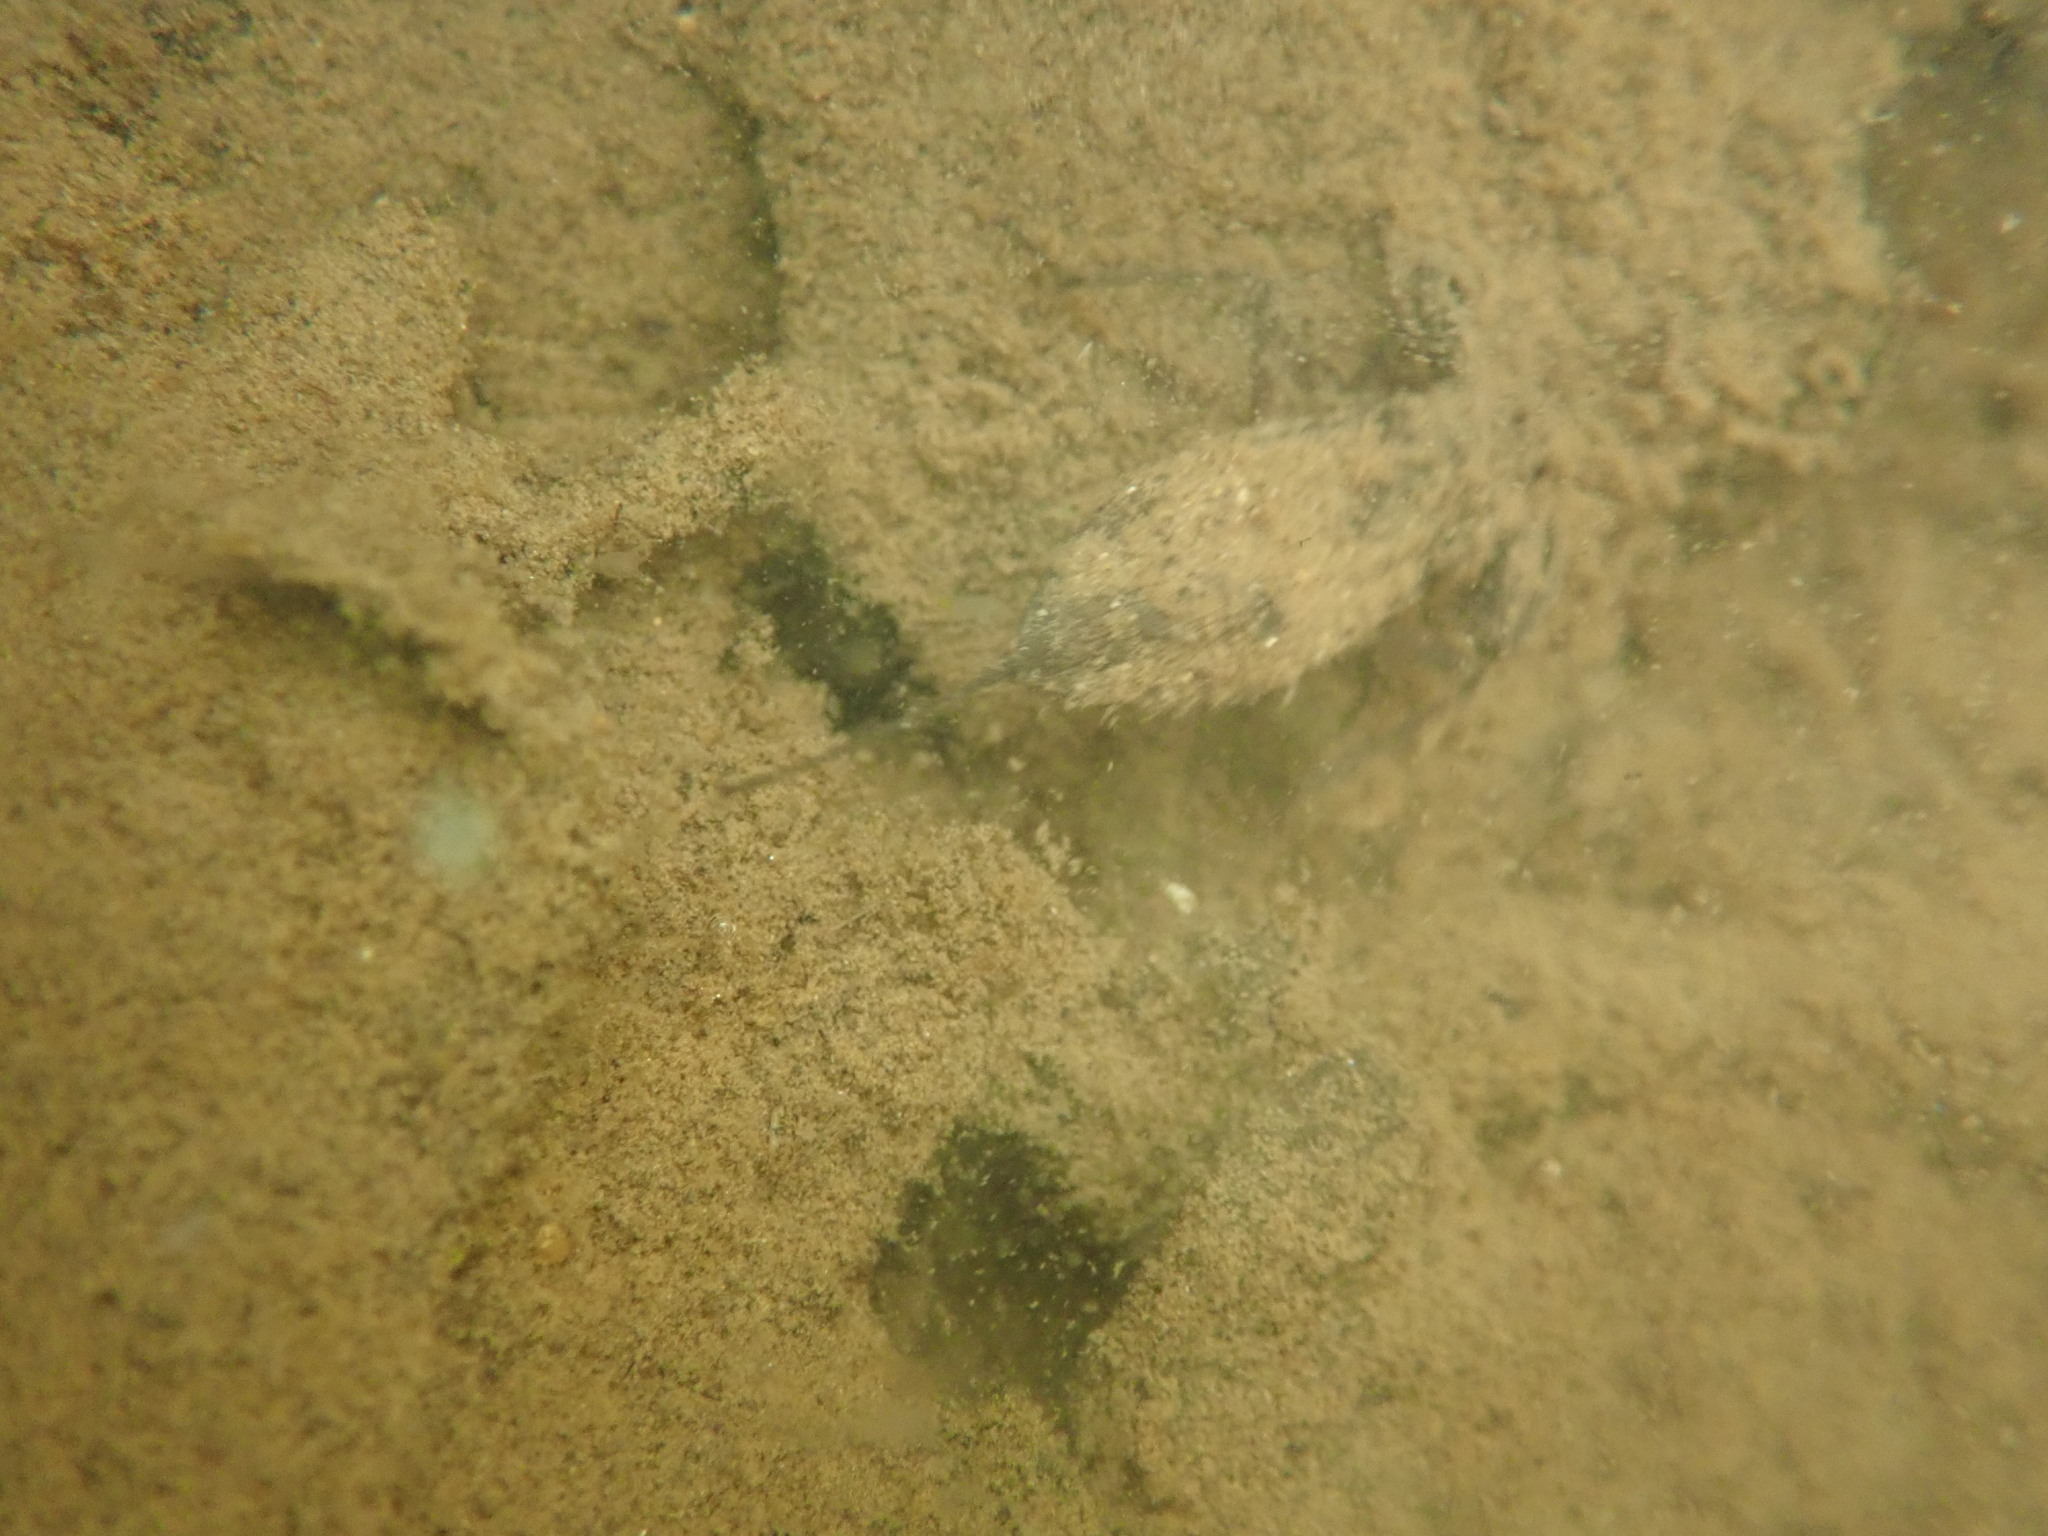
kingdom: Animalia
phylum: Arthropoda
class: Insecta
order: Hemiptera
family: Nepidae
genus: Nepa
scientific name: Nepa cinerea
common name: Water scorpion
